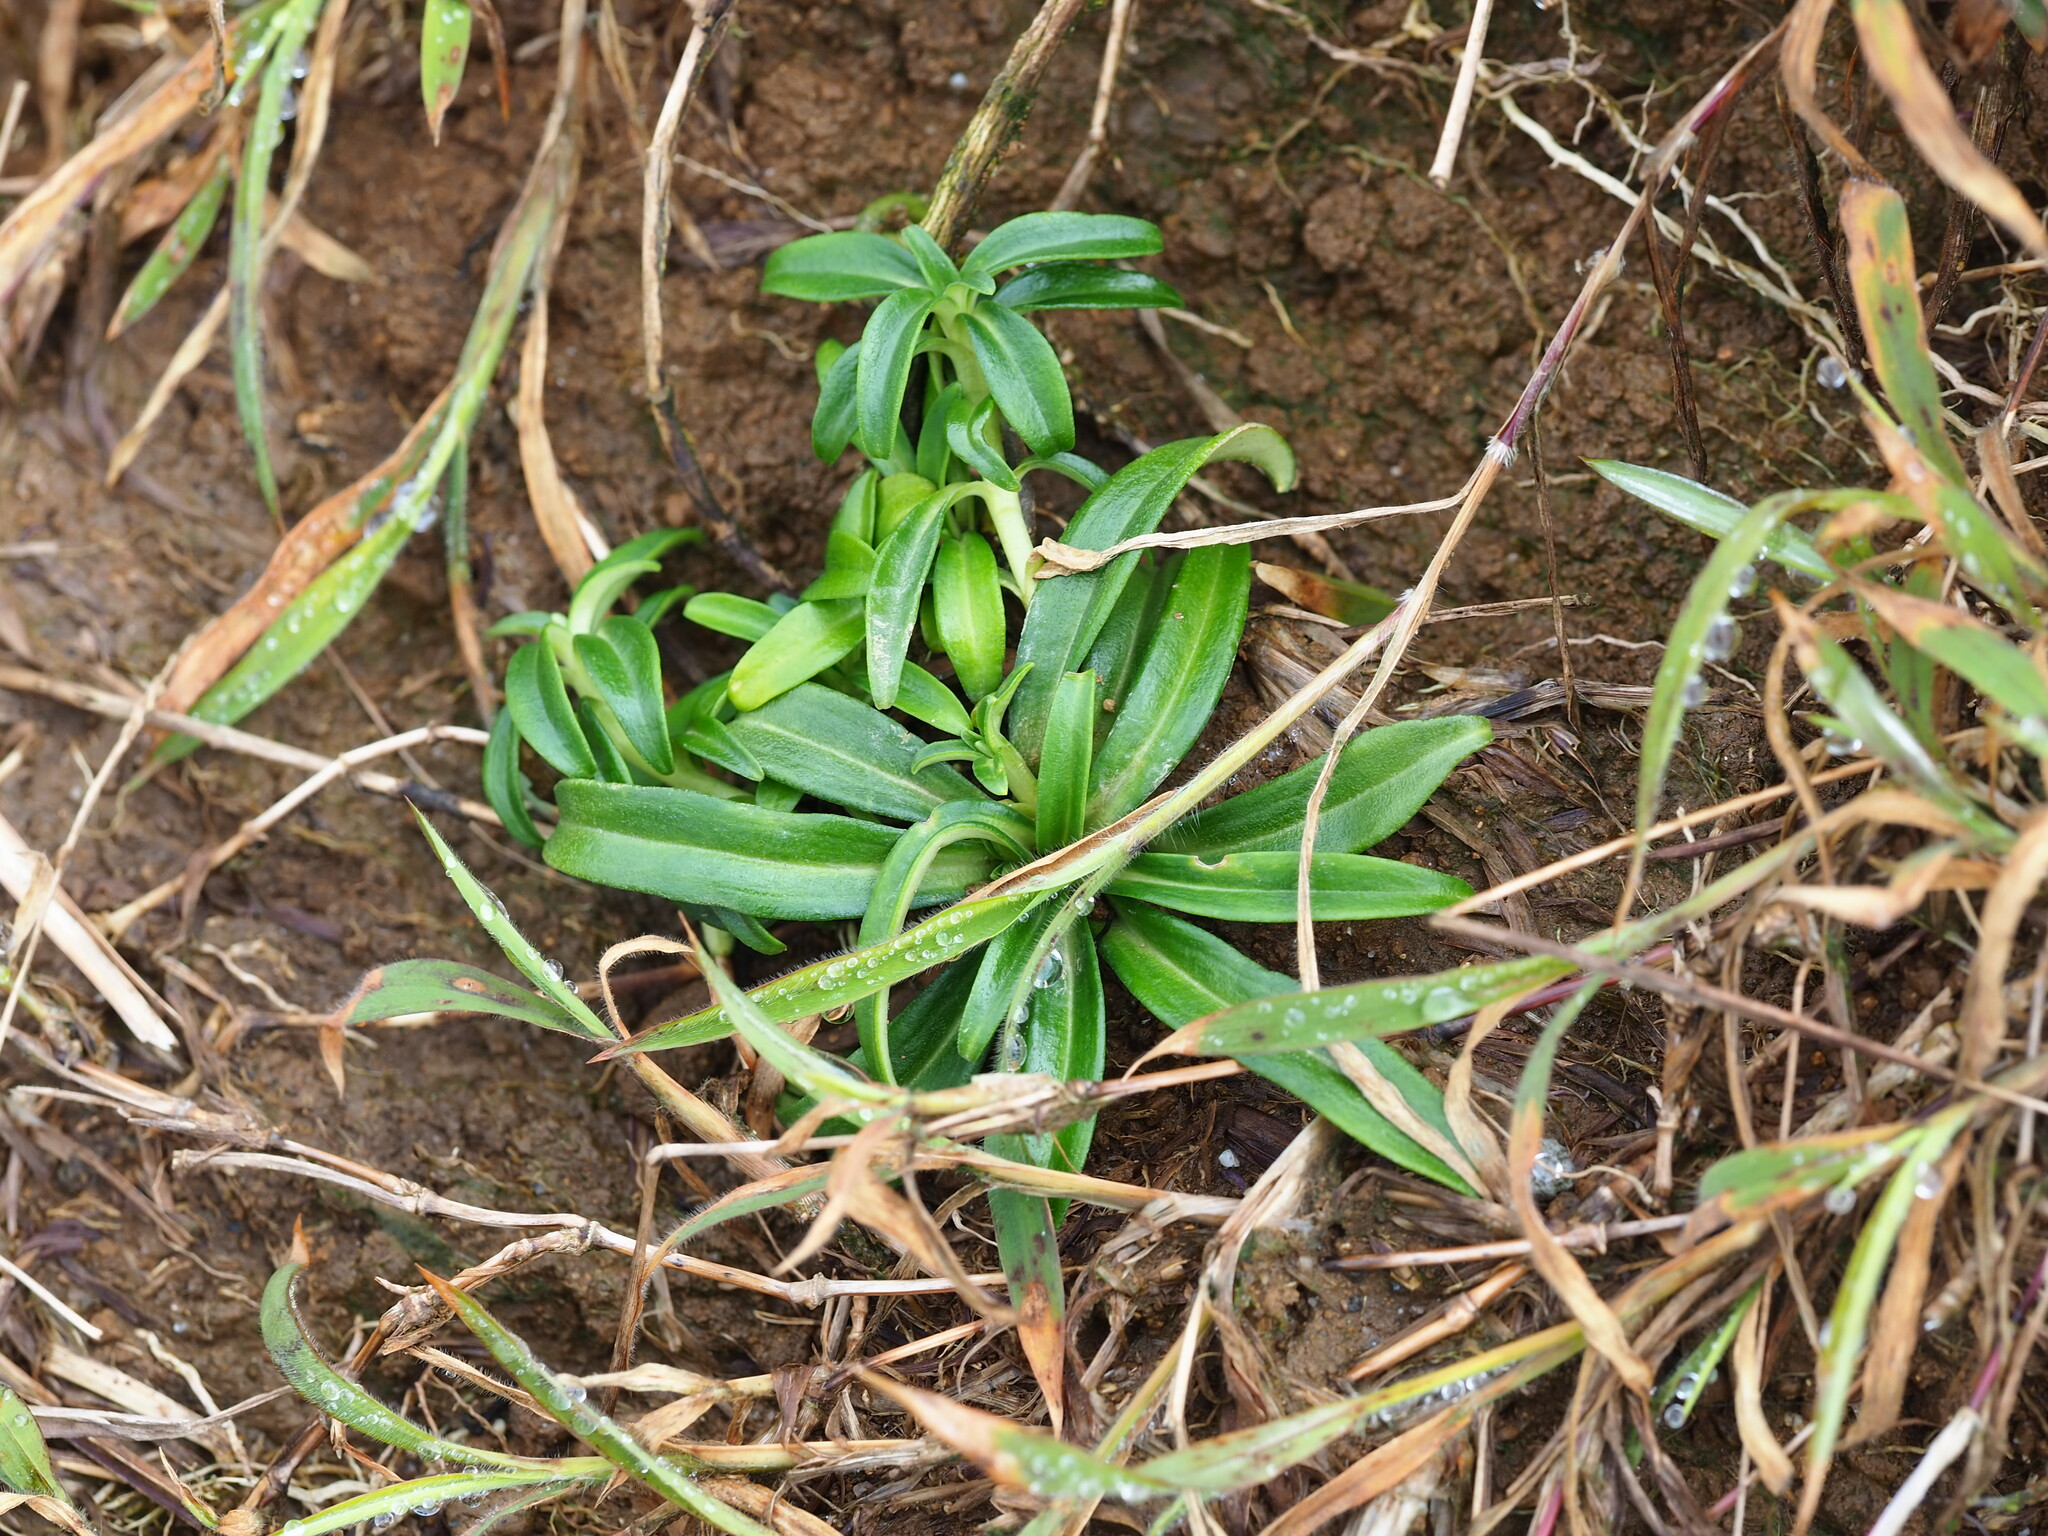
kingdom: Plantae
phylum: Tracheophyta
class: Magnoliopsida
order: Gentianales
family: Gentianaceae
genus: Gentiana
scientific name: Gentiana davidii
